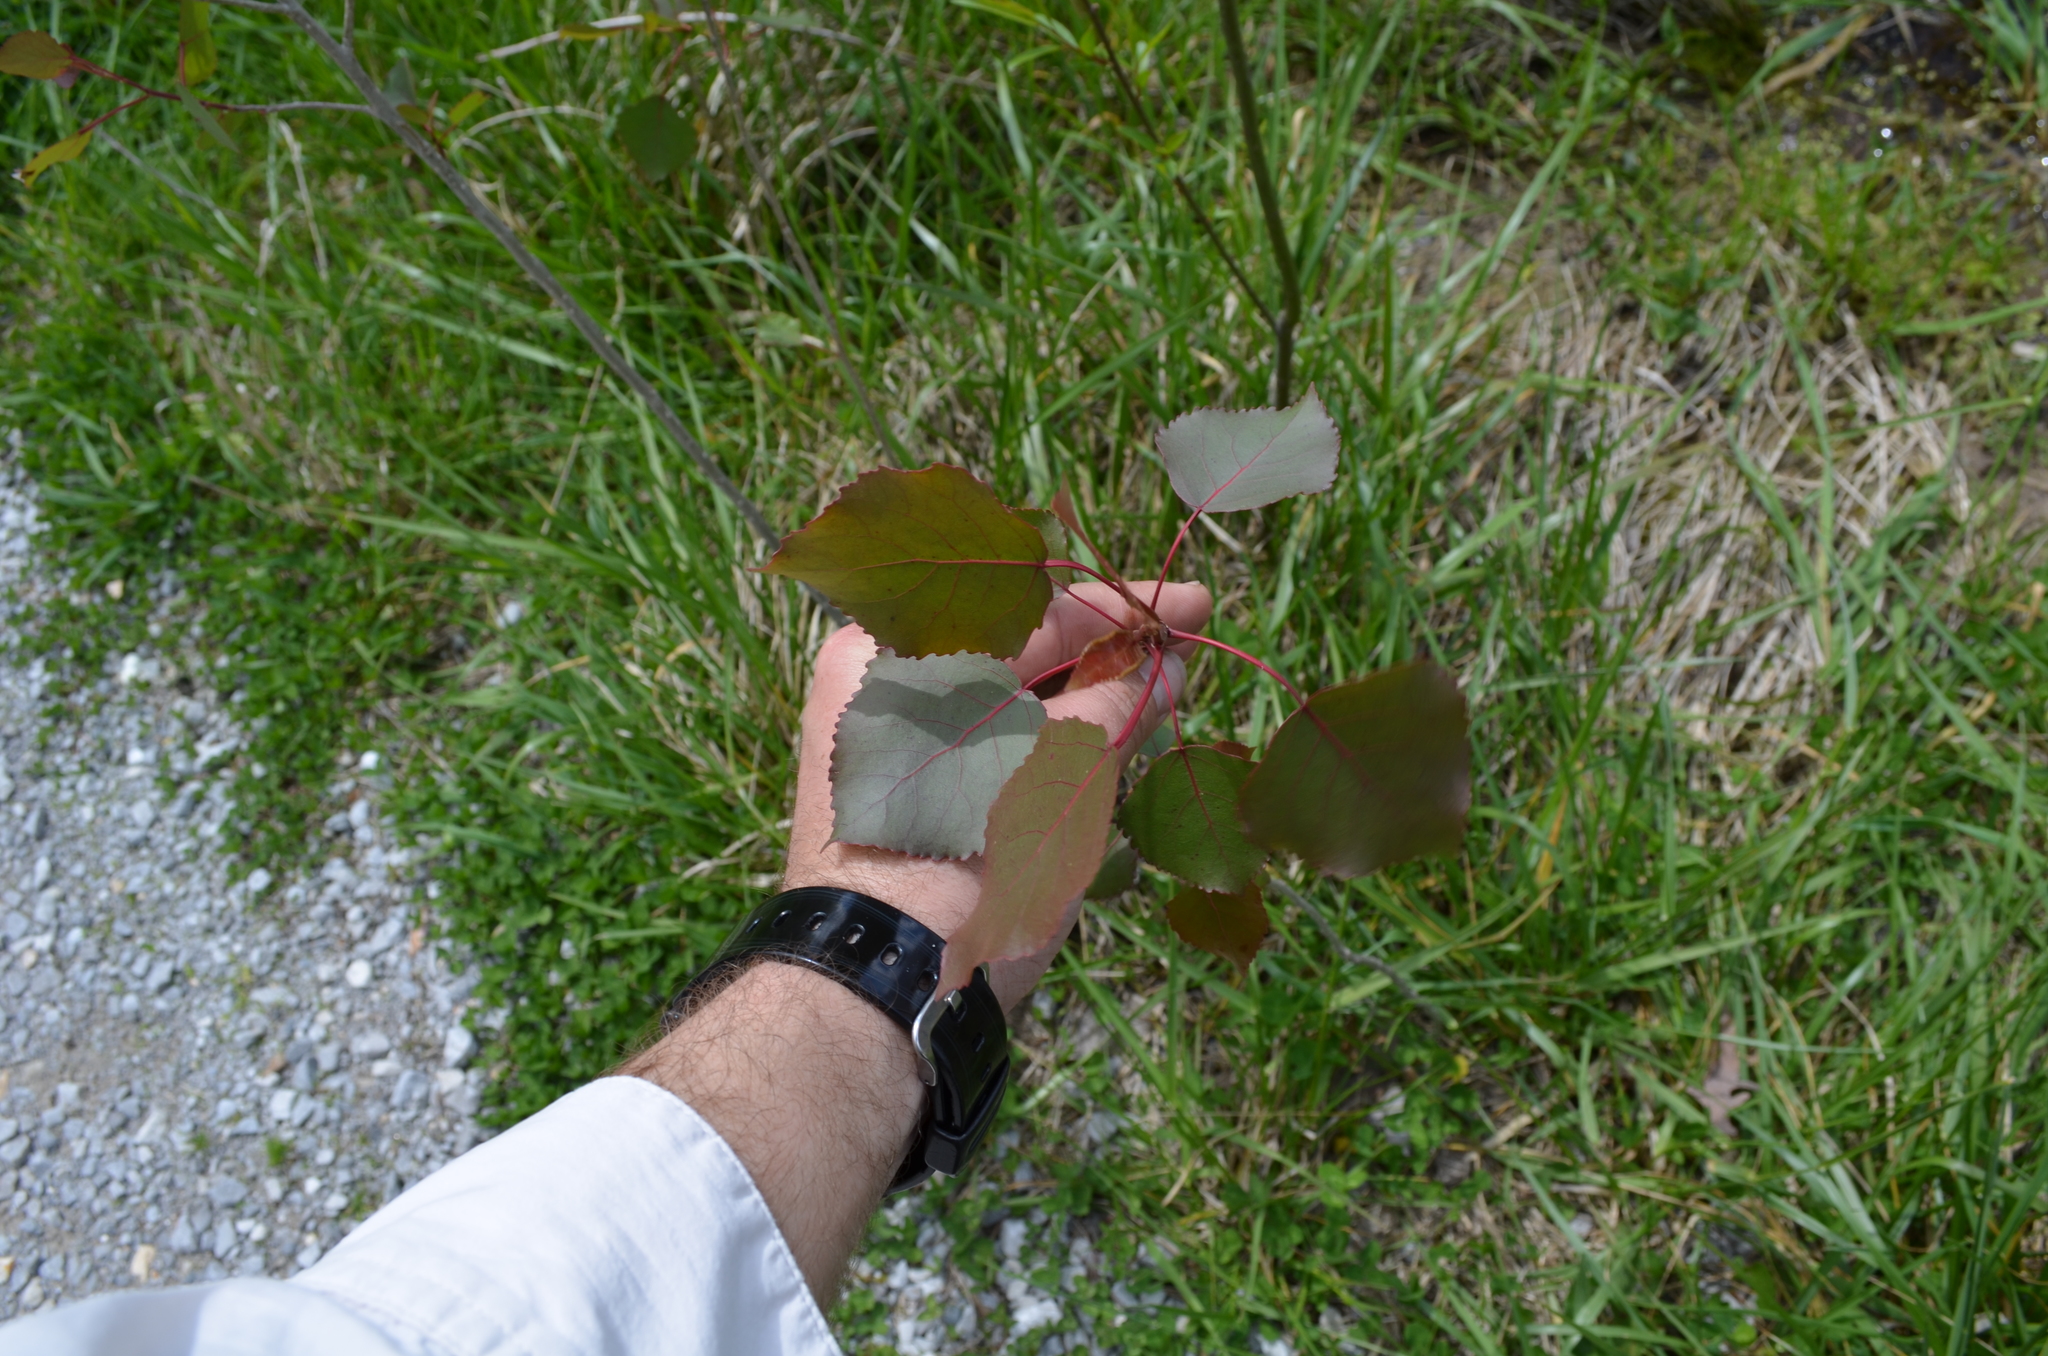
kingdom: Plantae
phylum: Tracheophyta
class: Magnoliopsida
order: Malpighiales
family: Salicaceae
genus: Populus
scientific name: Populus deltoides
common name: Eastern cottonwood
